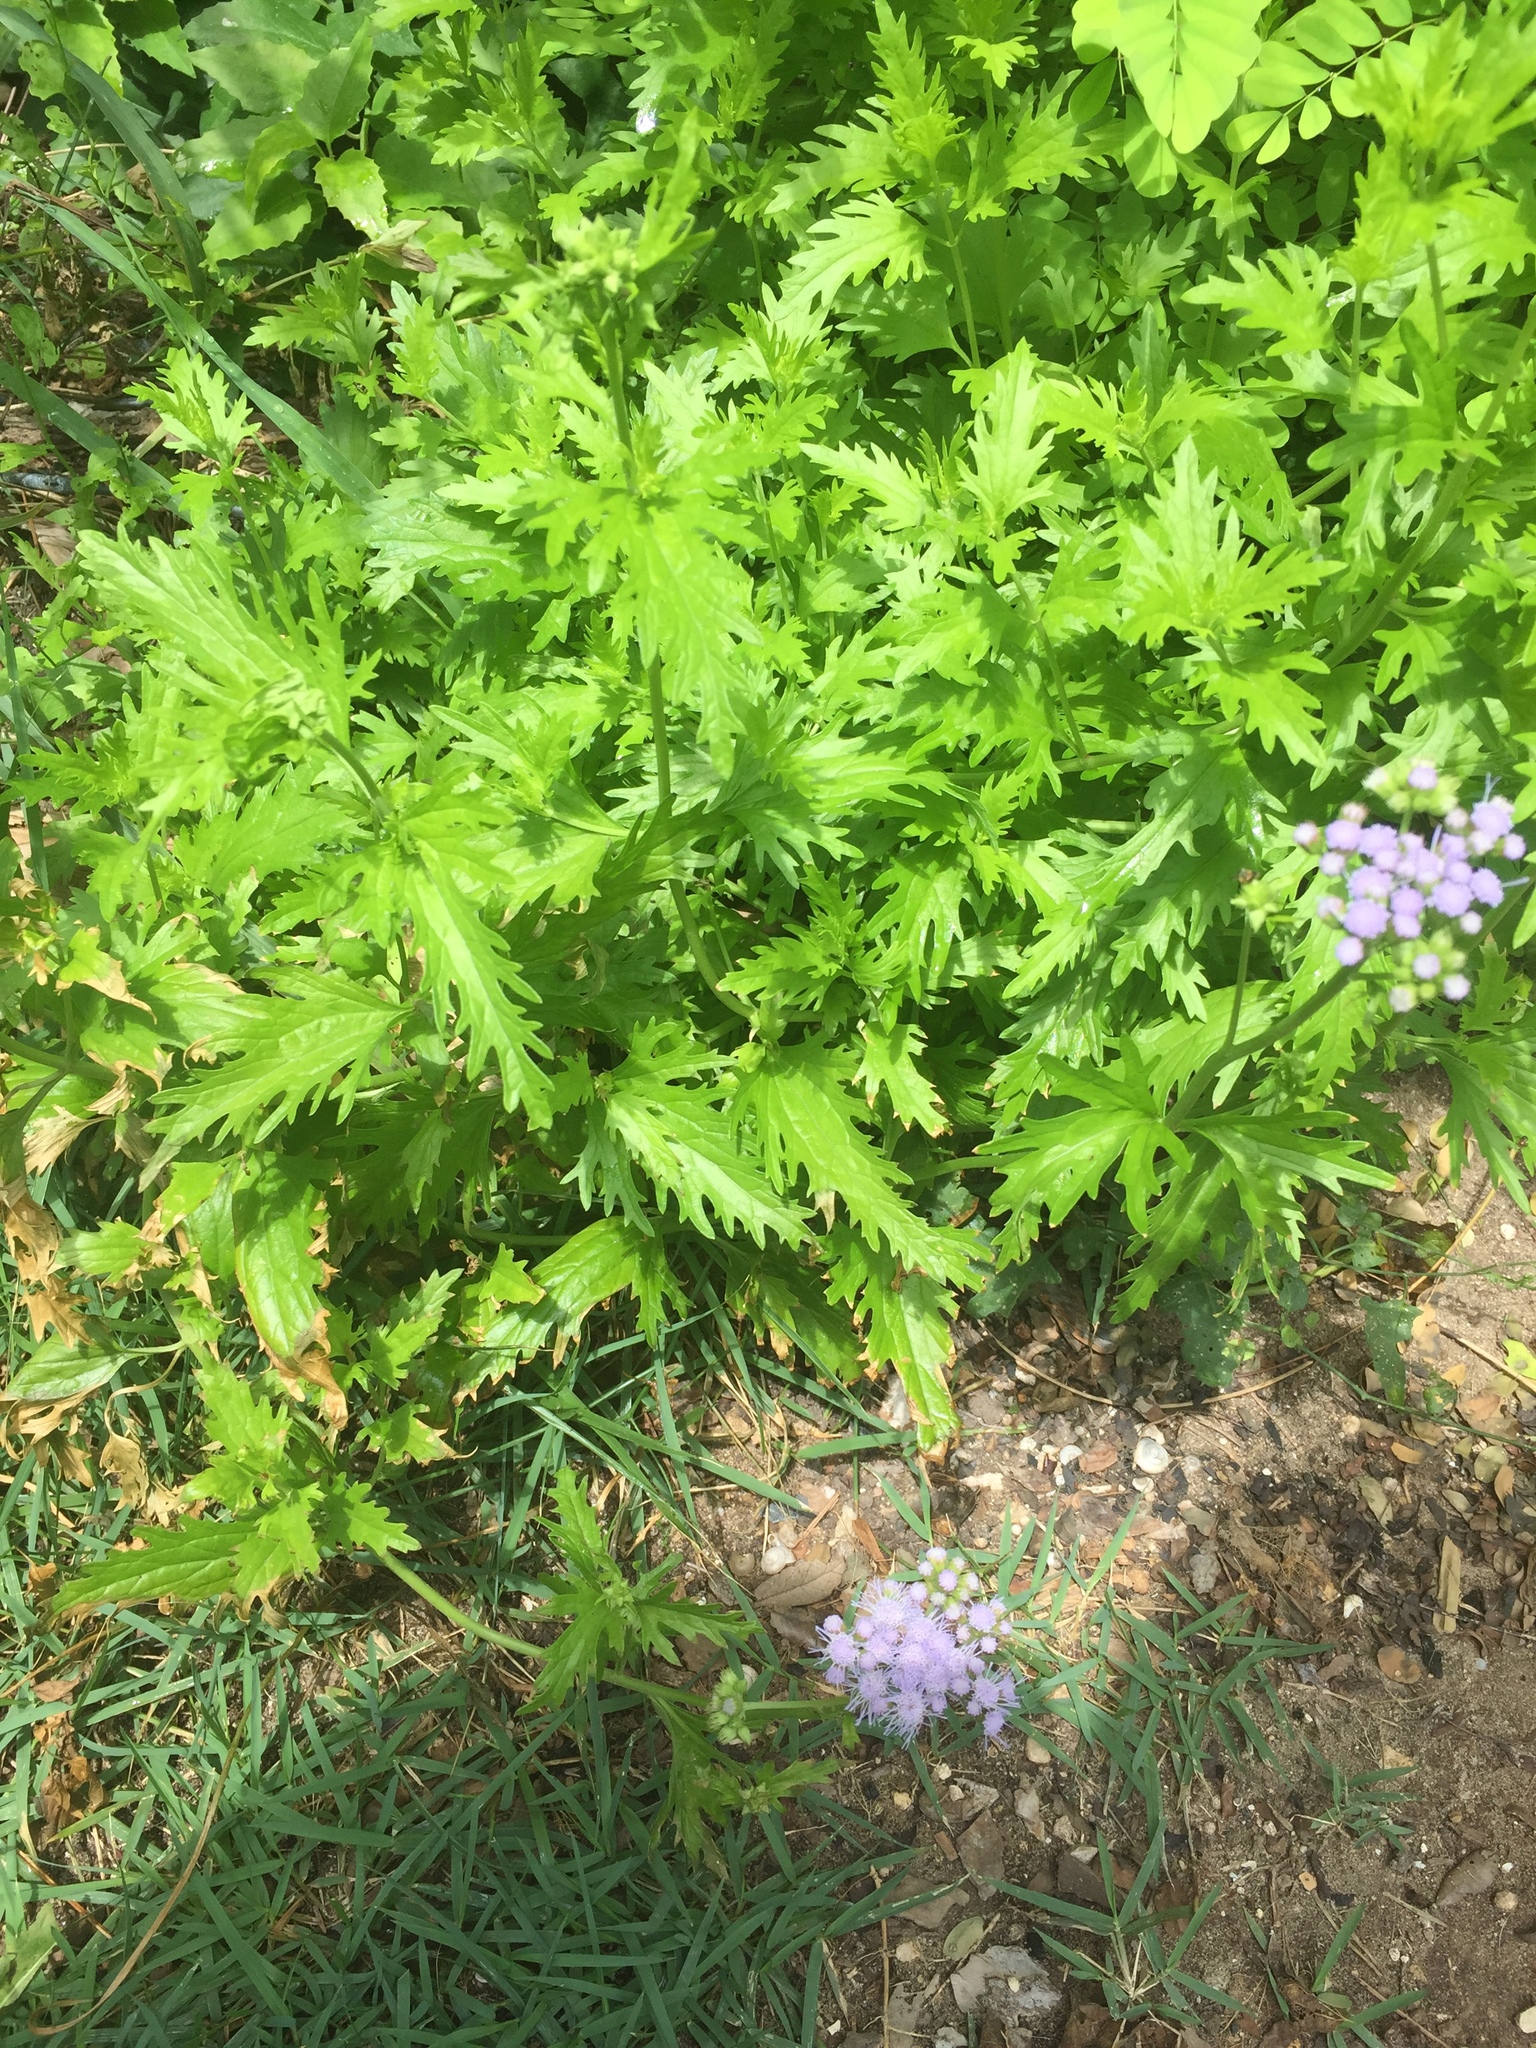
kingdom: Plantae
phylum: Tracheophyta
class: Magnoliopsida
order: Asterales
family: Asteraceae
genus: Conoclinium
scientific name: Conoclinium dissectum
